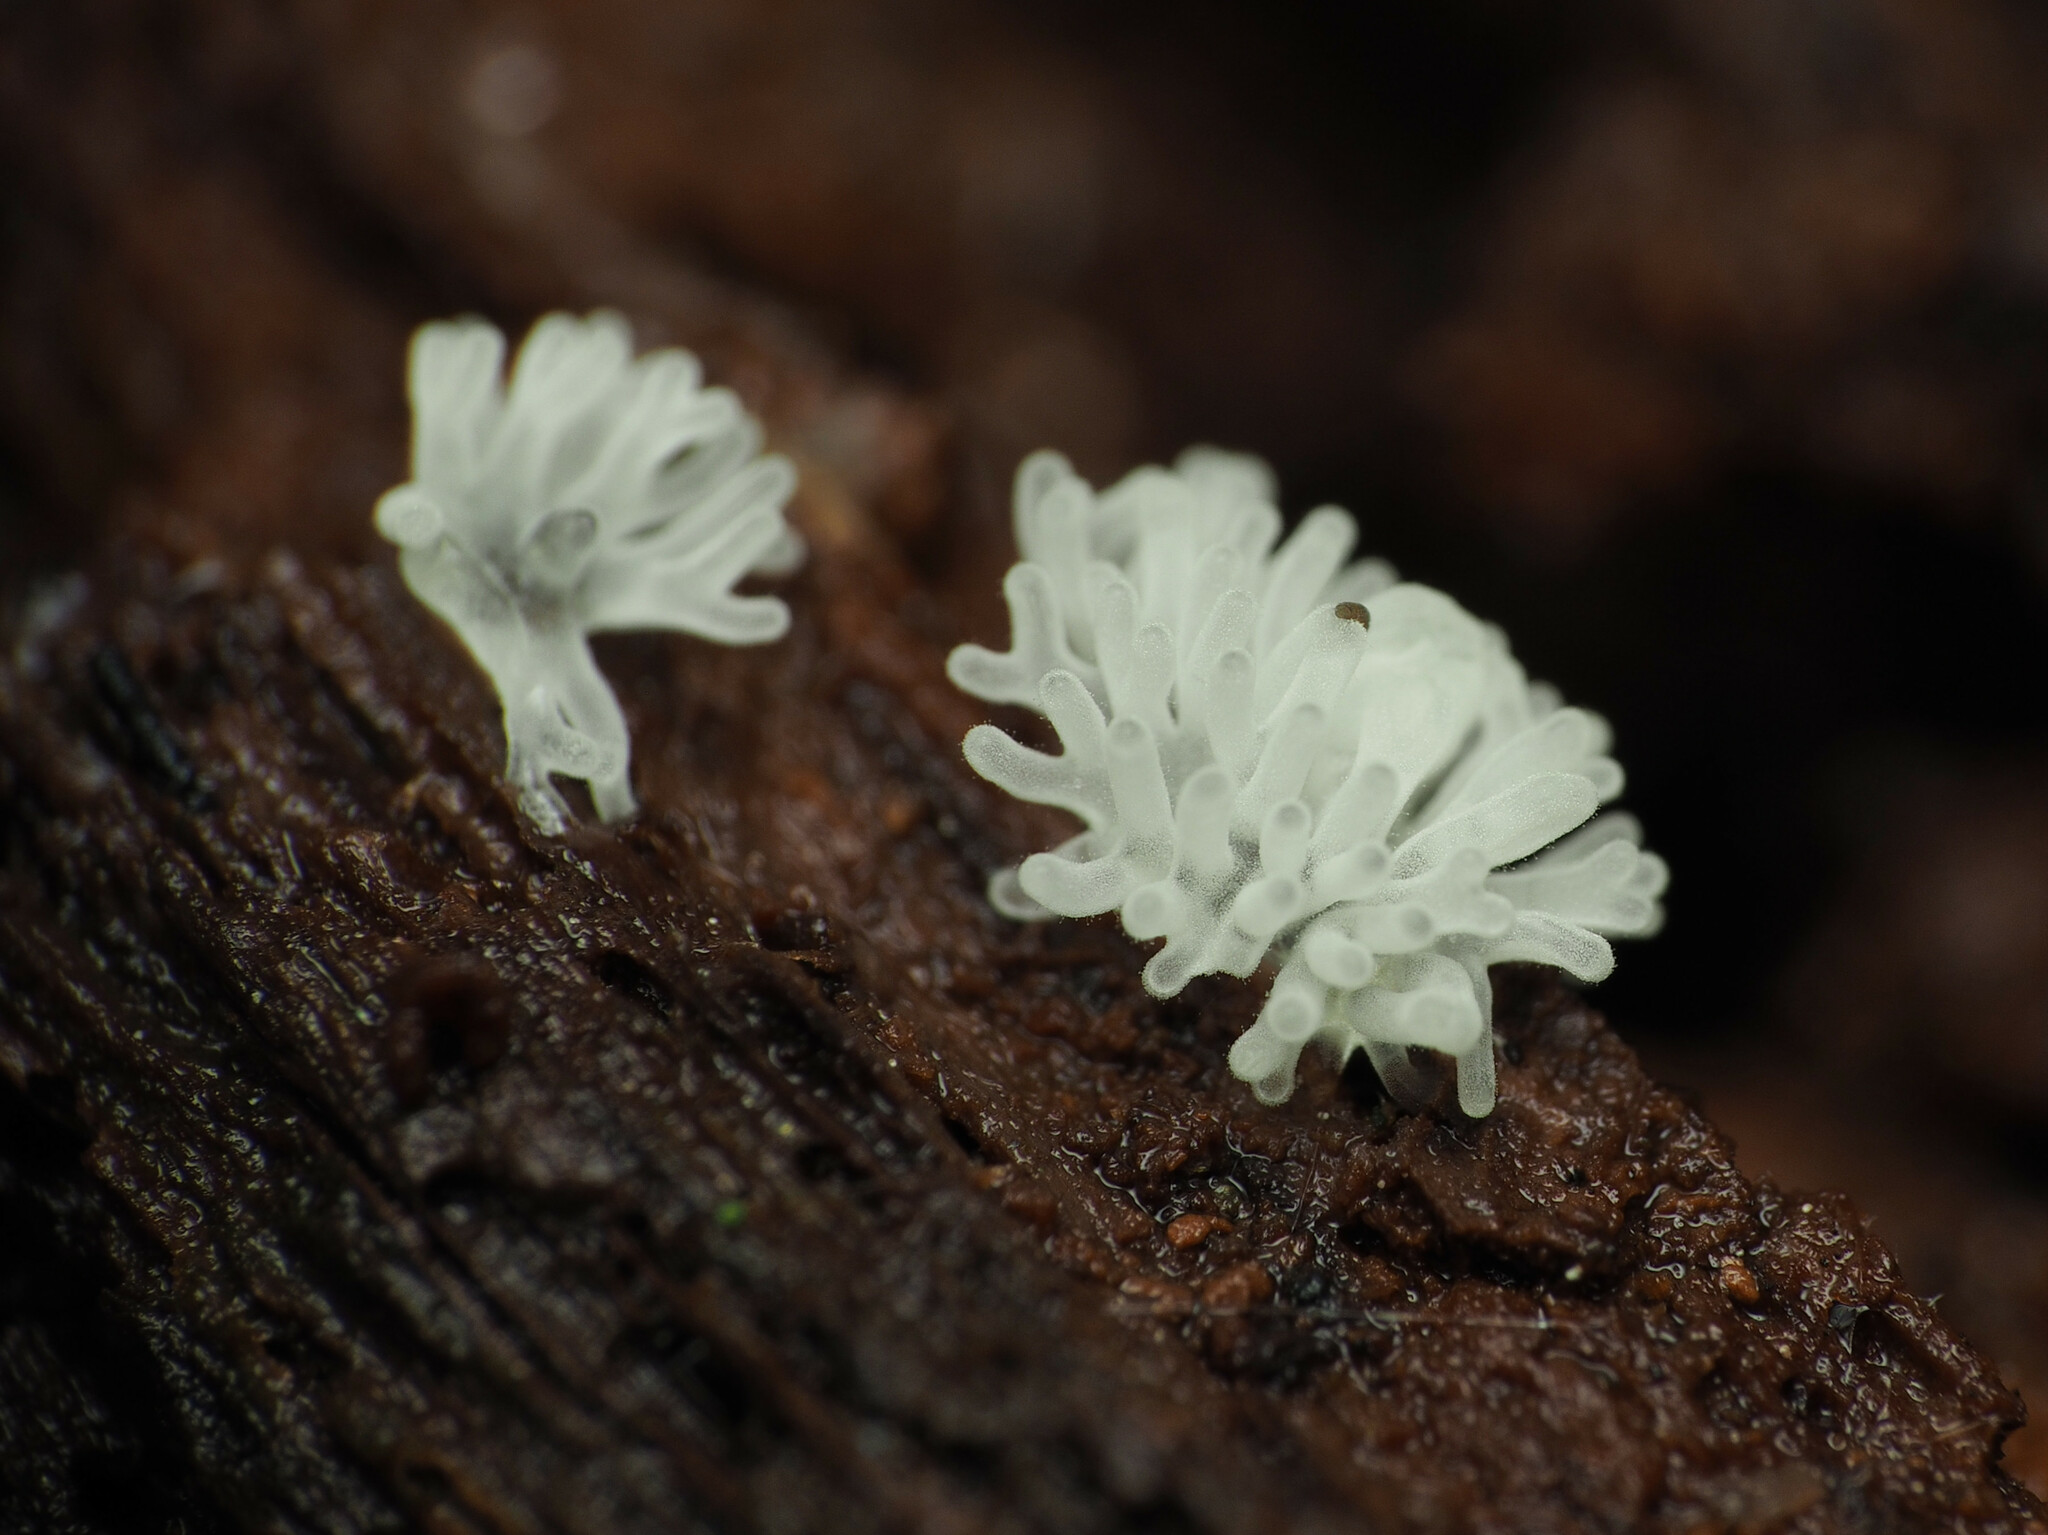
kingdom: Protozoa
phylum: Mycetozoa
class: Protosteliomycetes
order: Ceratiomyxales
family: Ceratiomyxaceae
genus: Ceratiomyxa
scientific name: Ceratiomyxa fruticulosa
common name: Honeycomb coral slime mold
